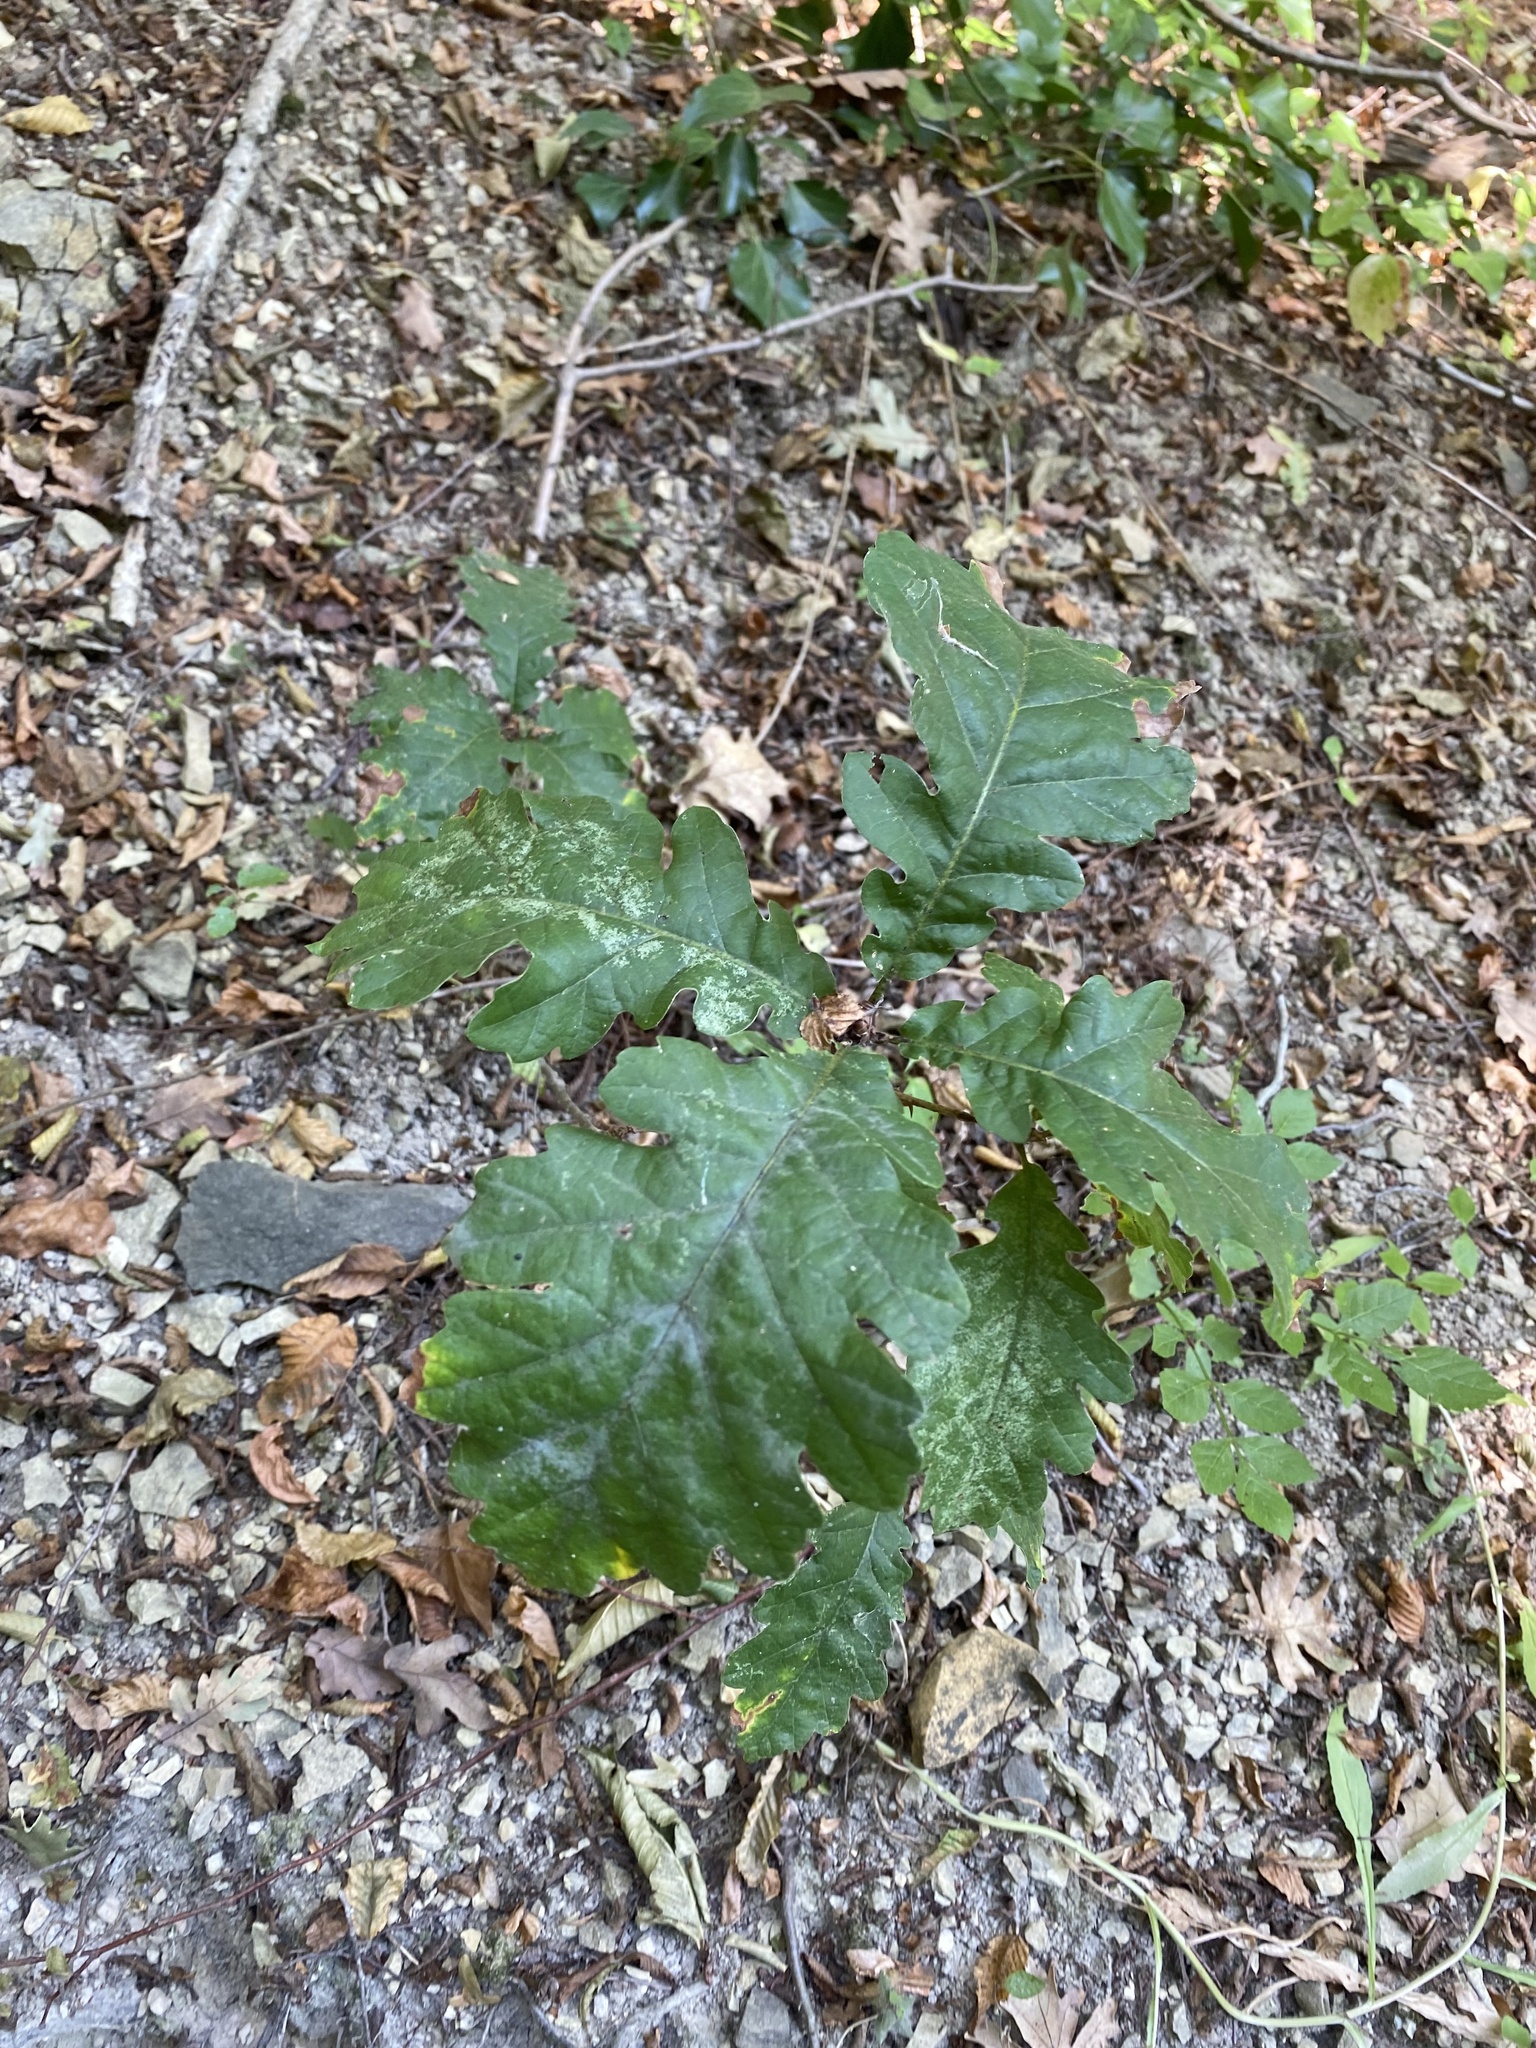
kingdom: Plantae
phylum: Tracheophyta
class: Magnoliopsida
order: Sapindales
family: Sapindaceae
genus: Acer
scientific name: Acer campestre
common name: Field maple
